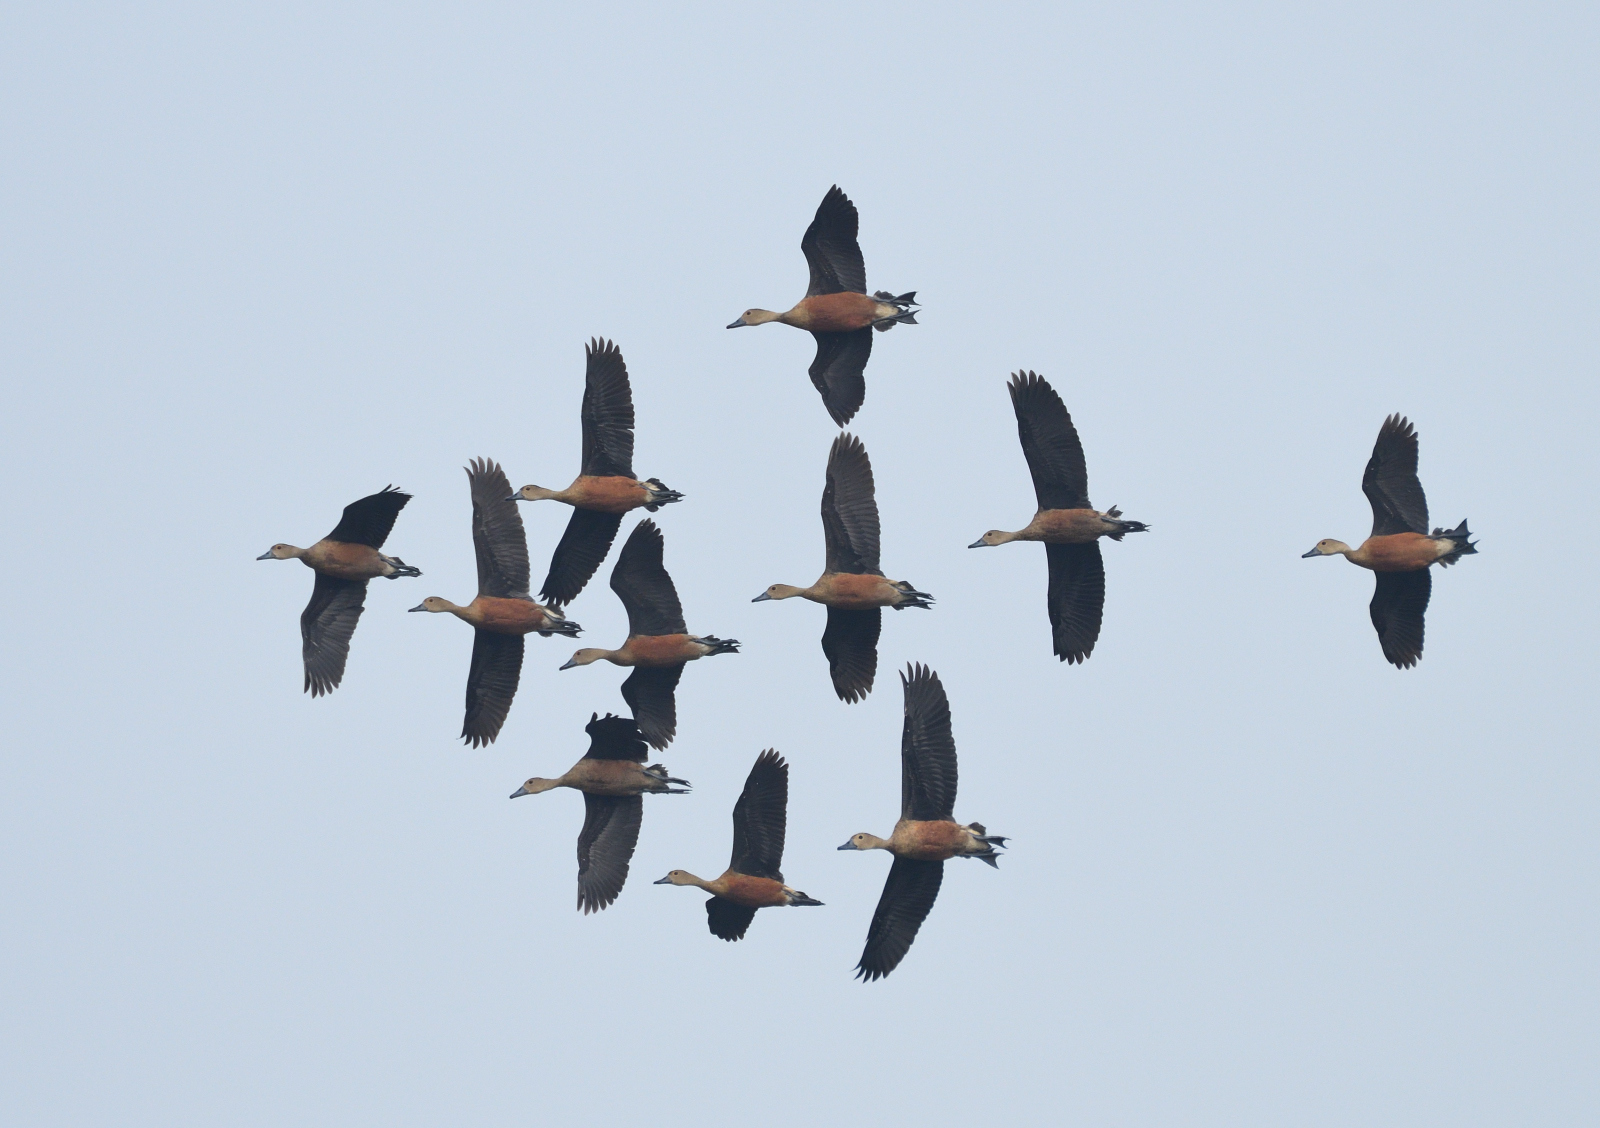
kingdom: Animalia
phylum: Chordata
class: Aves
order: Anseriformes
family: Anatidae
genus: Dendrocygna
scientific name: Dendrocygna javanica
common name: Lesser whistling-duck
